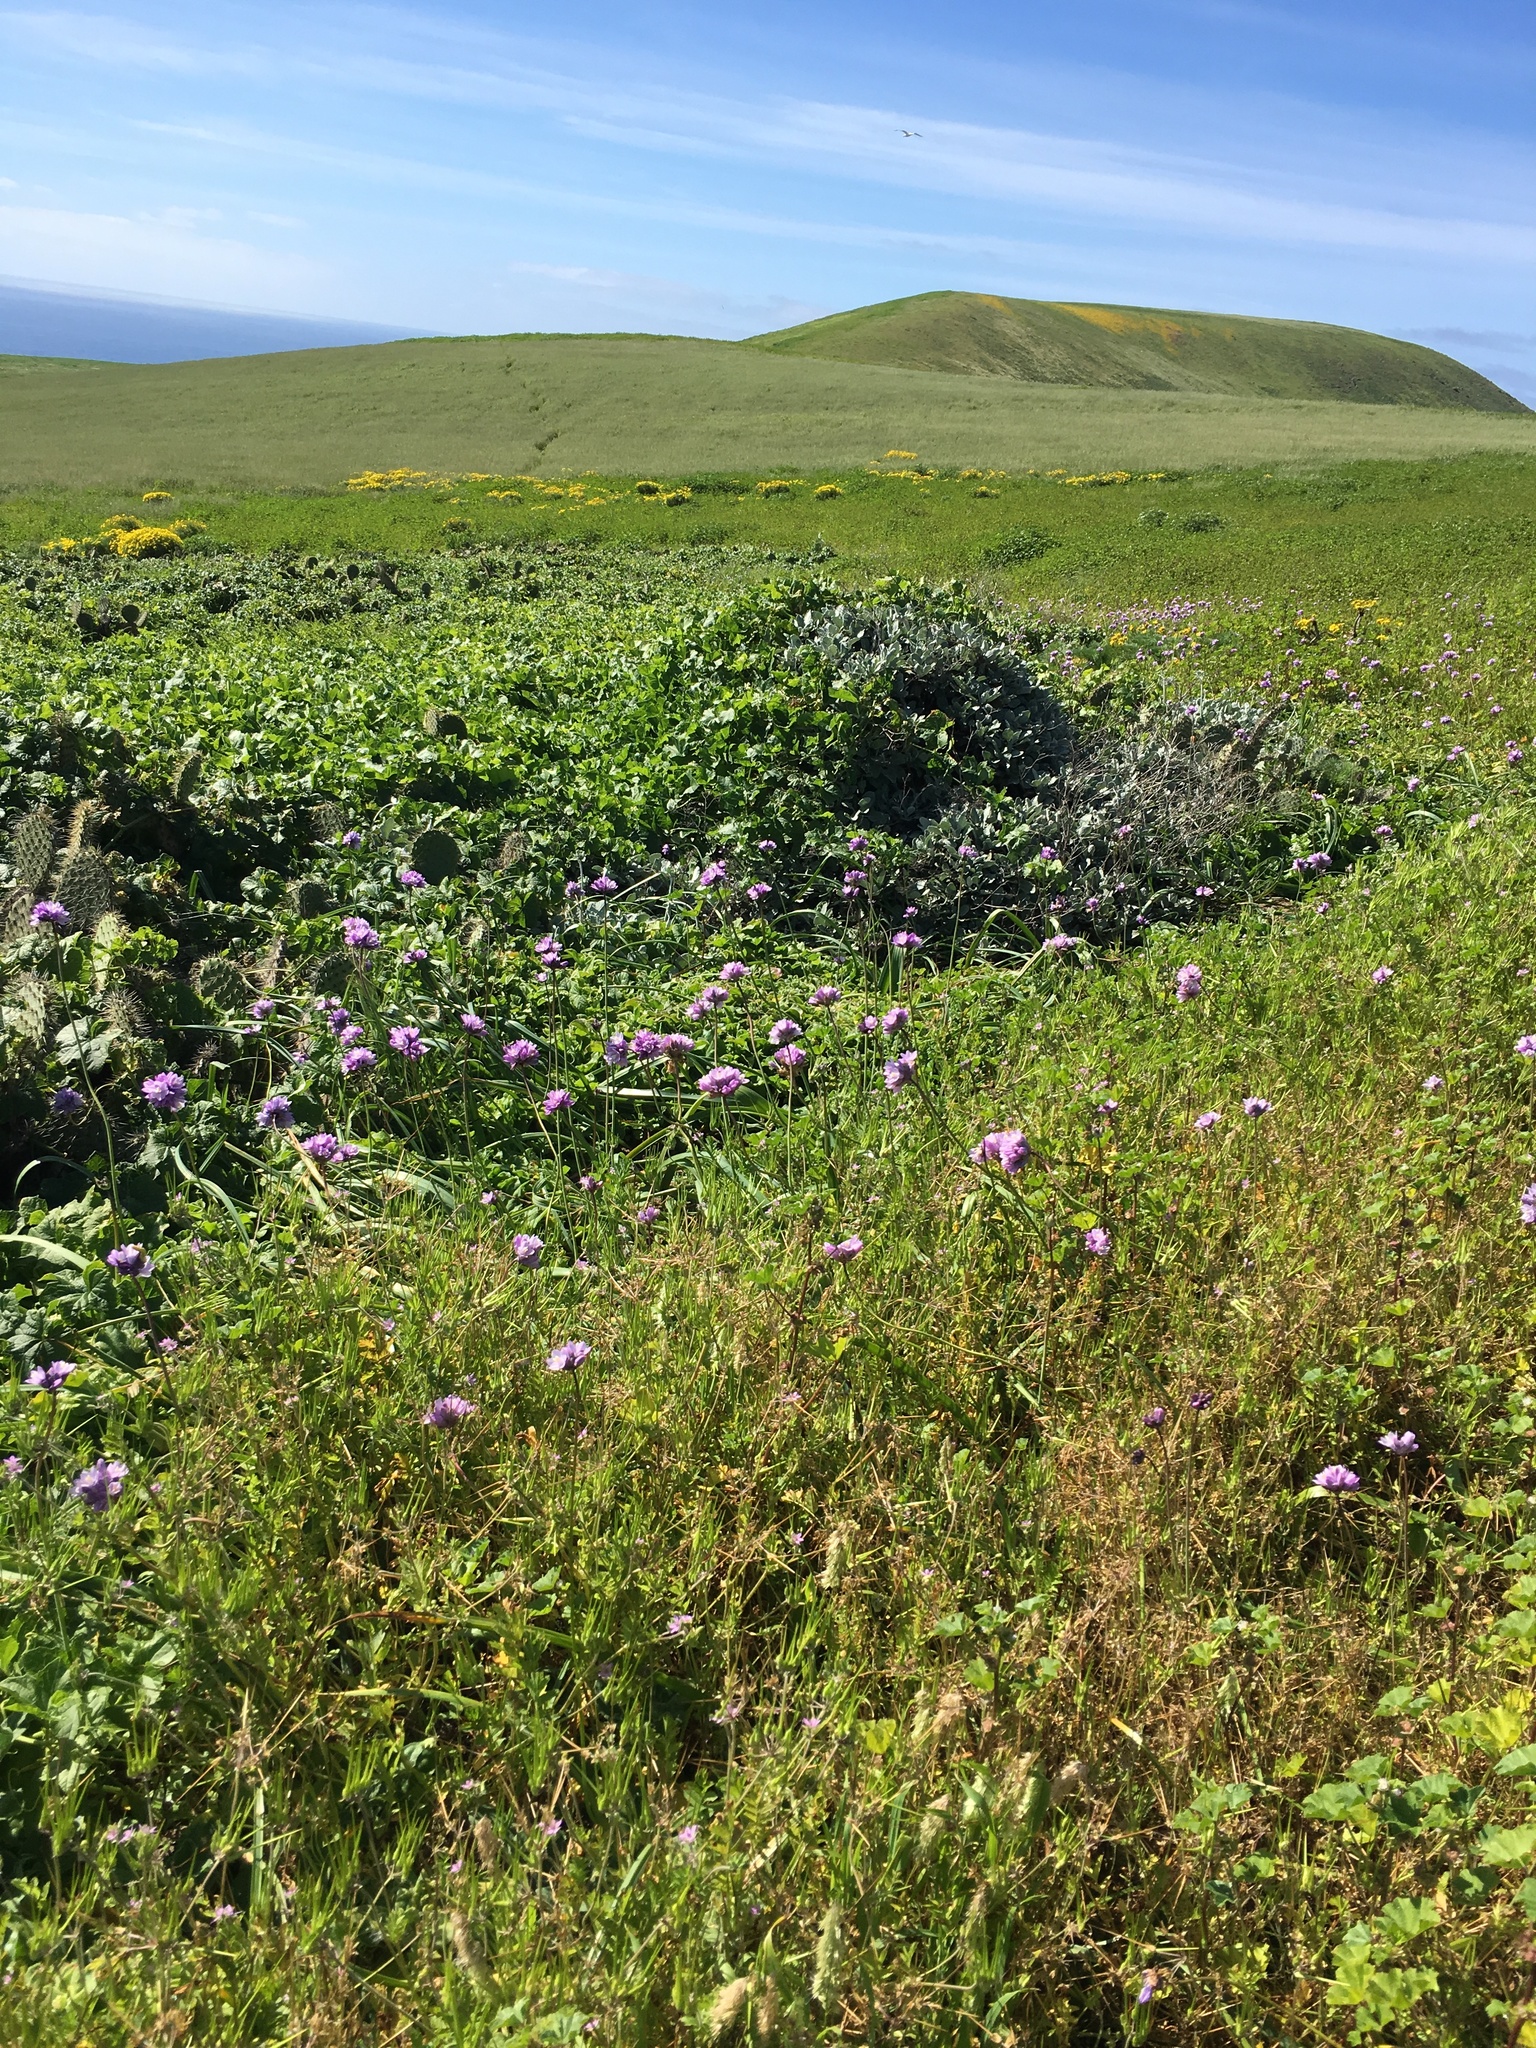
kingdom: Plantae
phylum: Tracheophyta
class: Liliopsida
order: Asparagales
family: Asparagaceae
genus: Dipterostemon
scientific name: Dipterostemon capitatus
